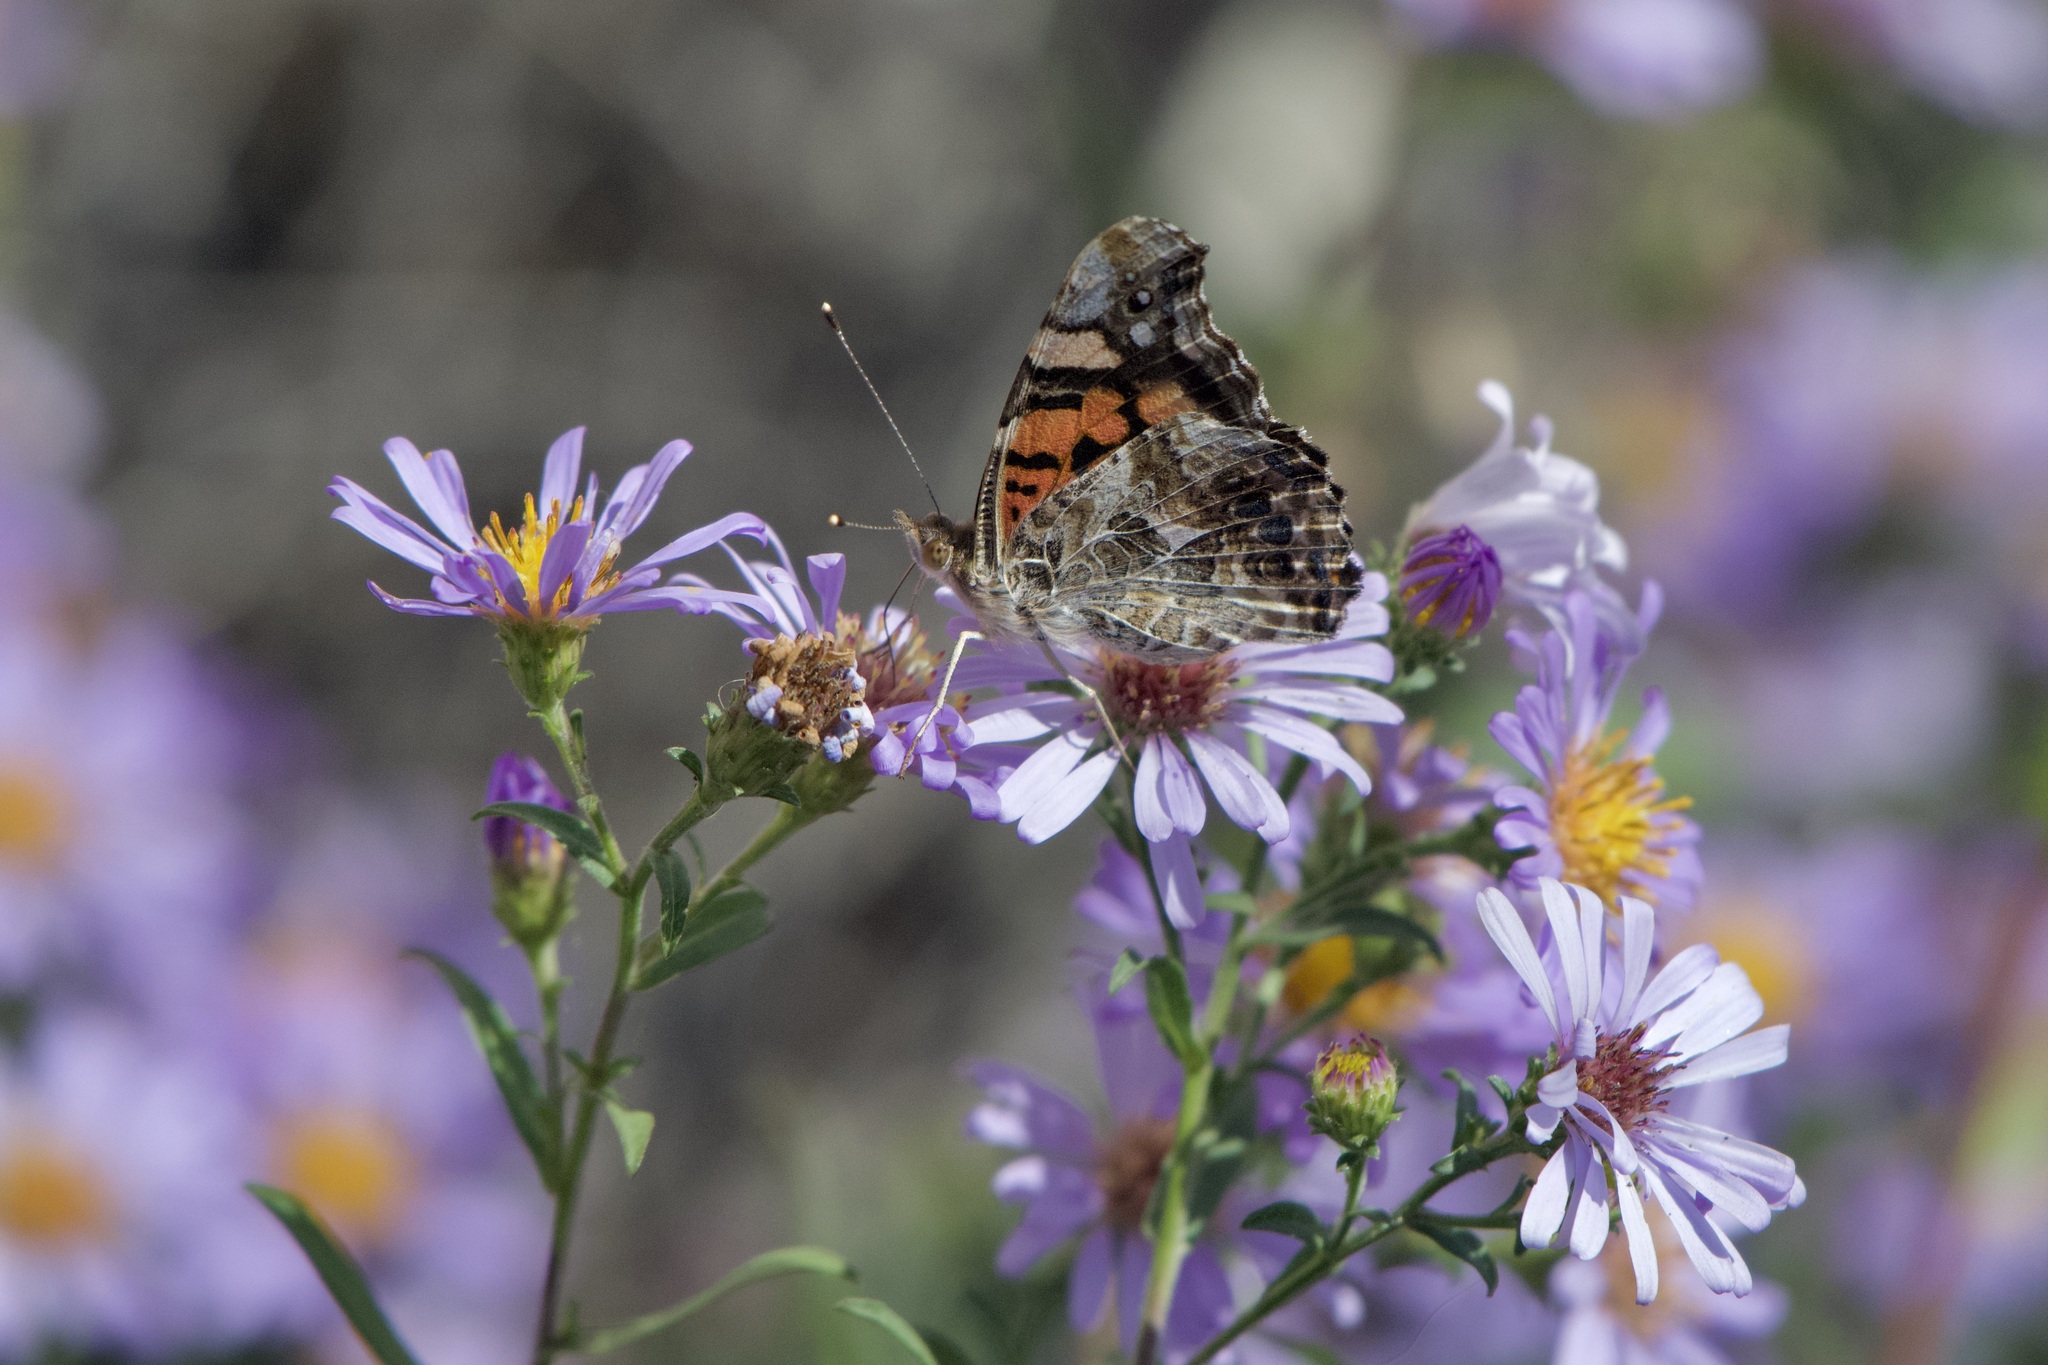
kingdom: Animalia
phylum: Arthropoda
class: Insecta
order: Lepidoptera
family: Nymphalidae
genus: Vanessa
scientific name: Vanessa annabella
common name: West coast lady
